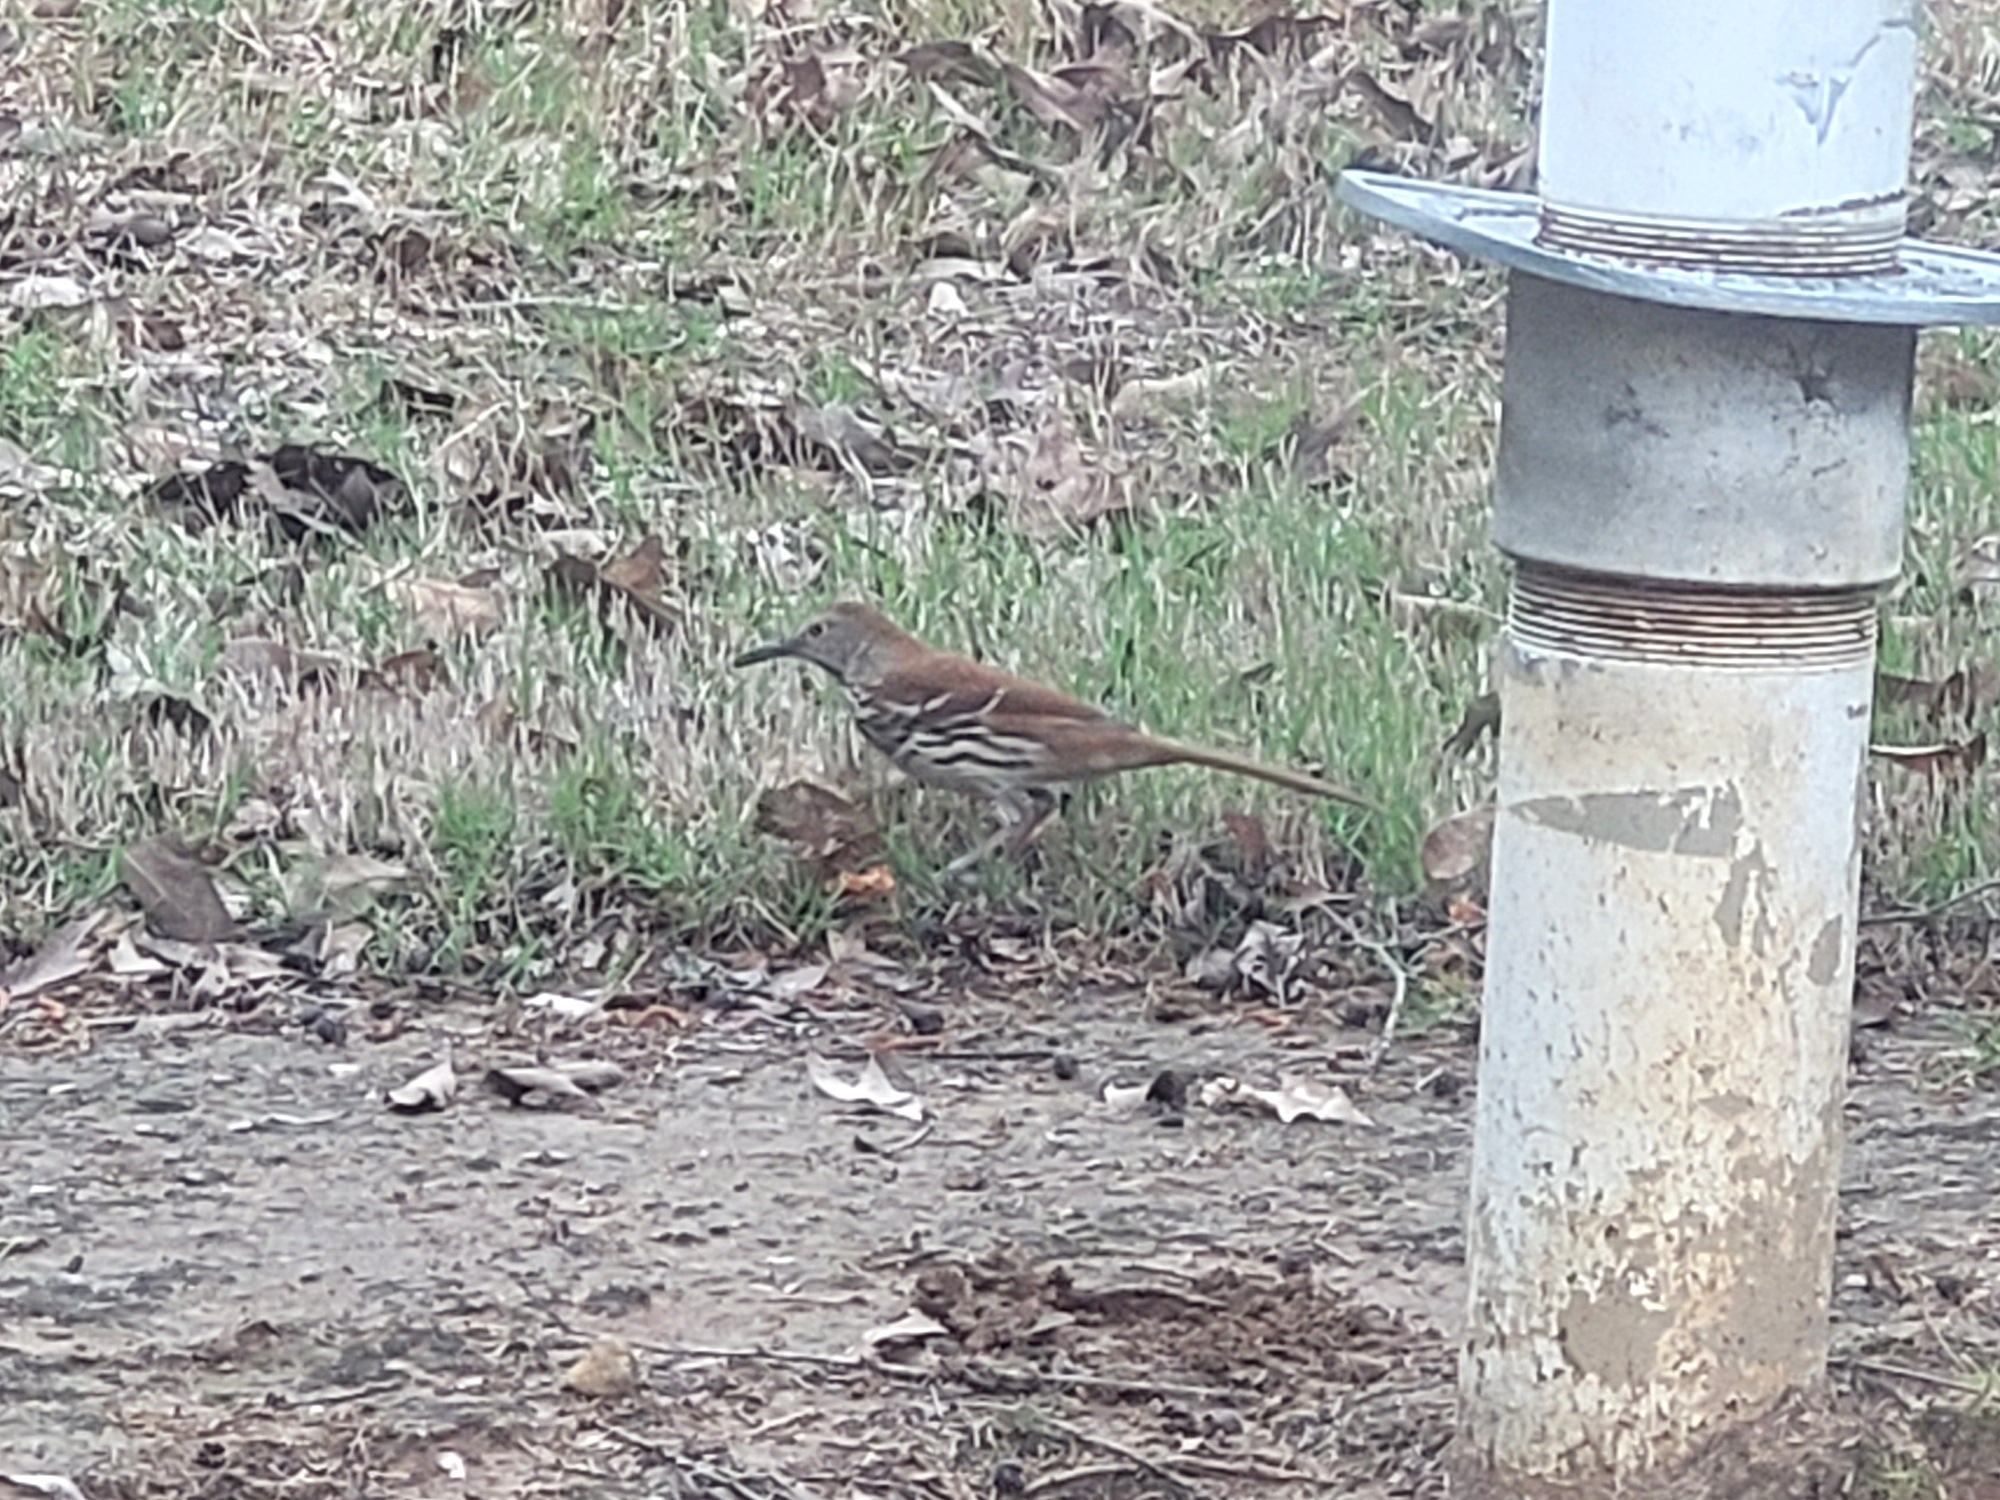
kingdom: Animalia
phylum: Chordata
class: Aves
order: Passeriformes
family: Mimidae
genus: Toxostoma
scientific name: Toxostoma rufum
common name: Brown thrasher
